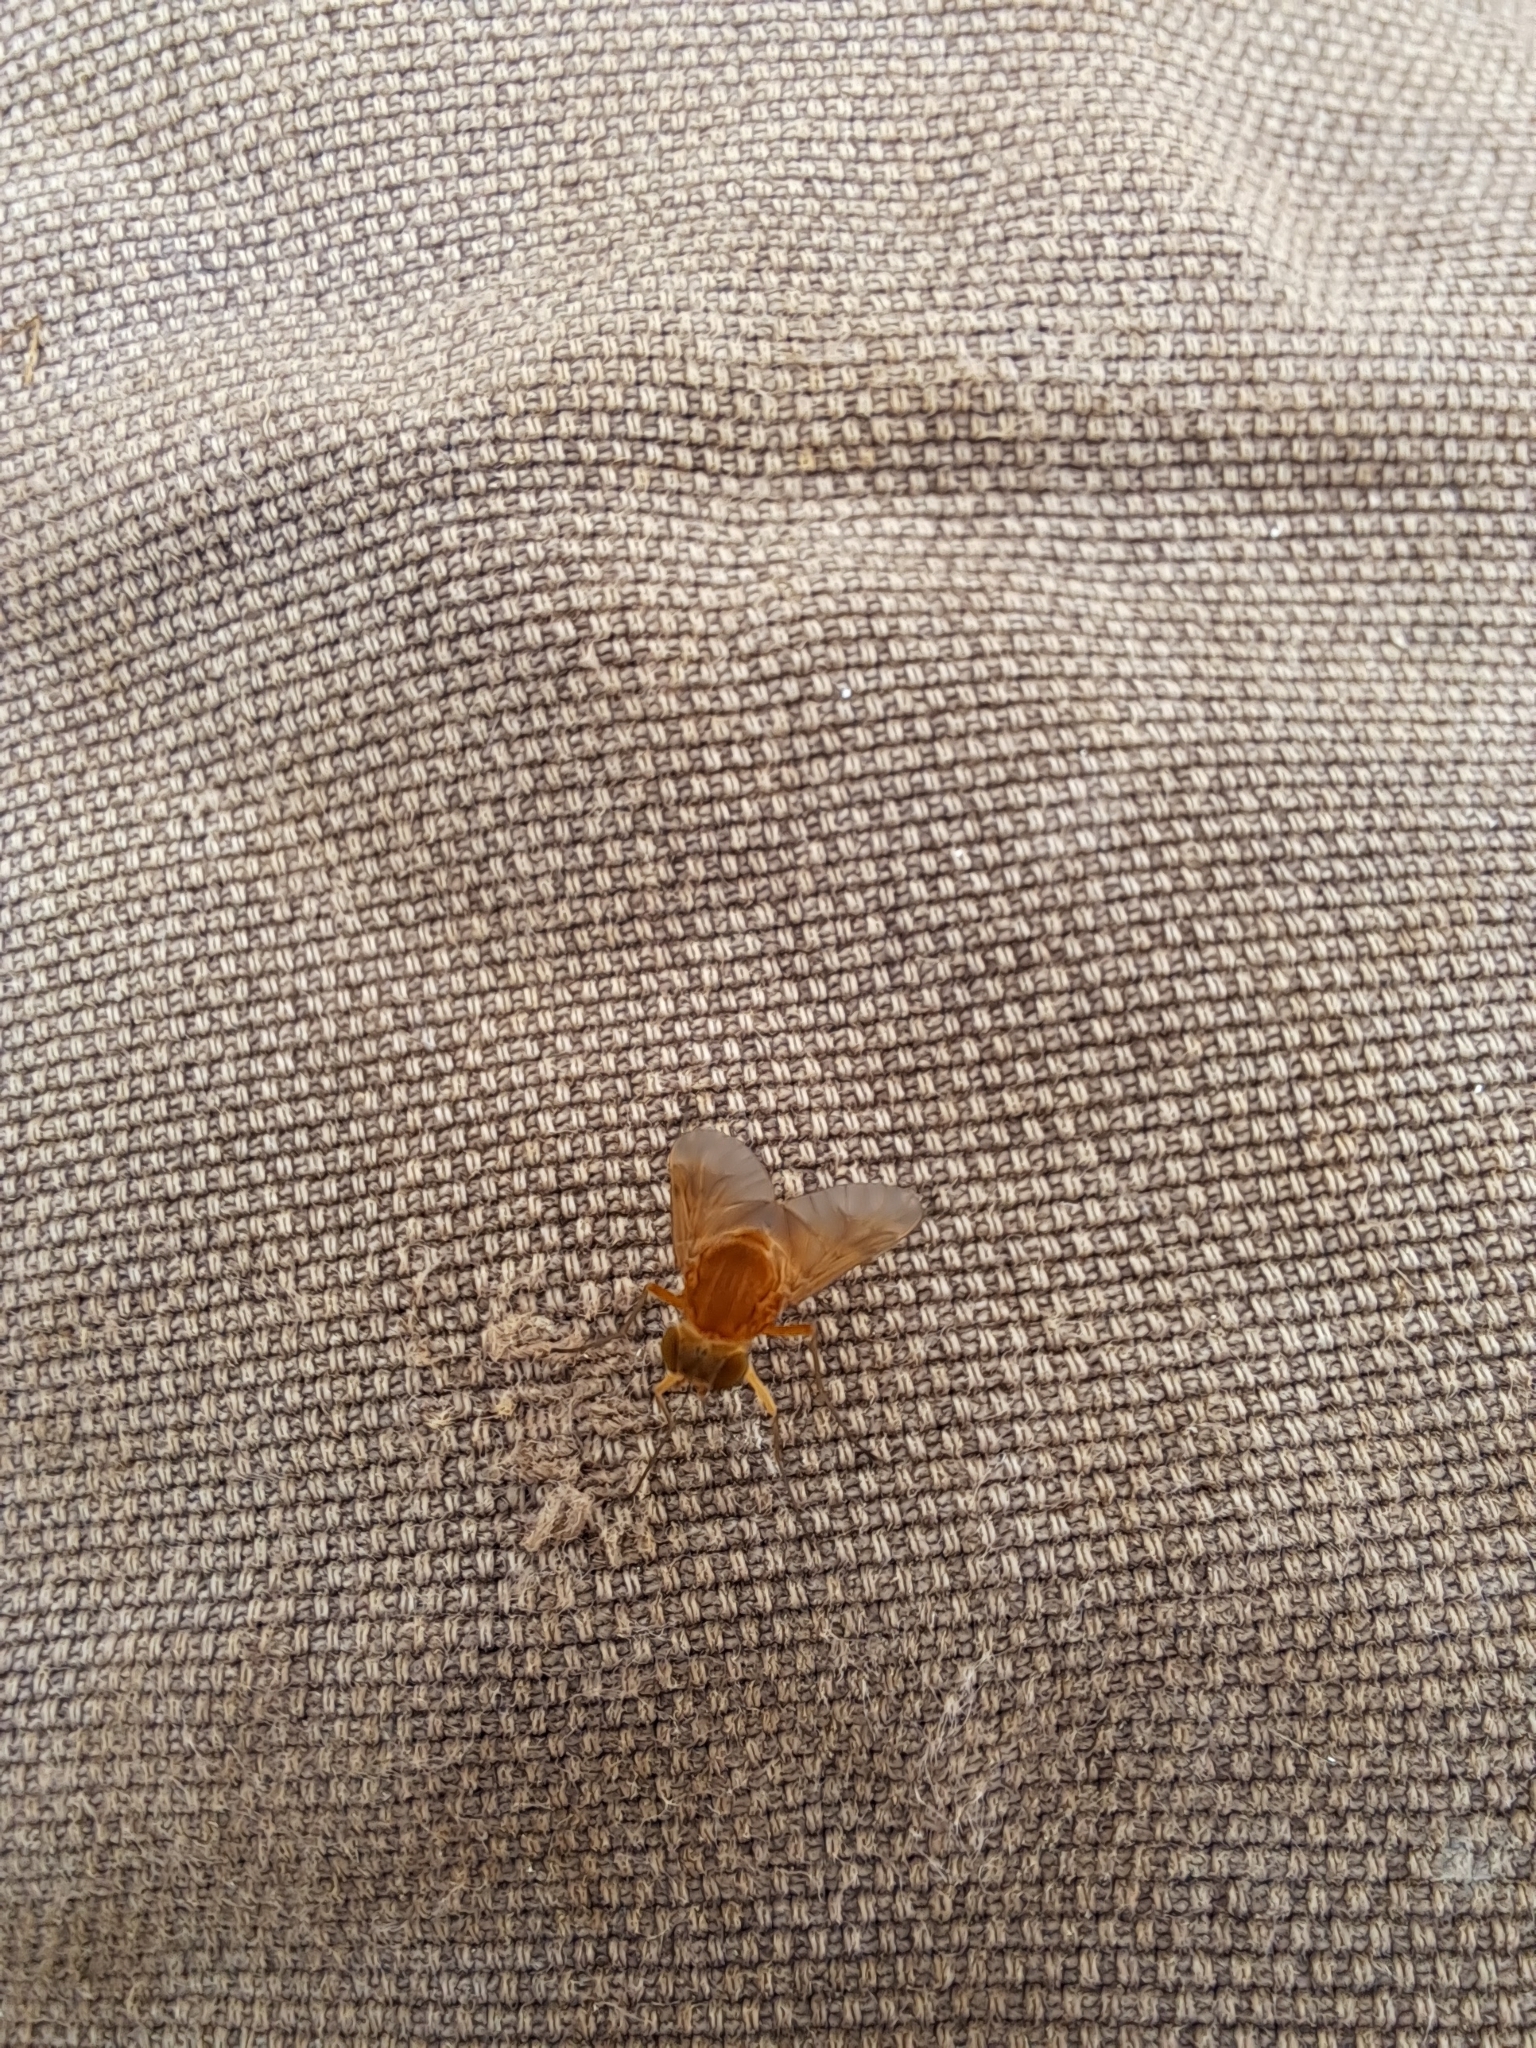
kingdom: Animalia
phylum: Arthropoda
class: Insecta
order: Diptera
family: Rhagionidae
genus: Chrysopilus
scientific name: Chrysopilus quadratus
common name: Quadrate snipe fly
